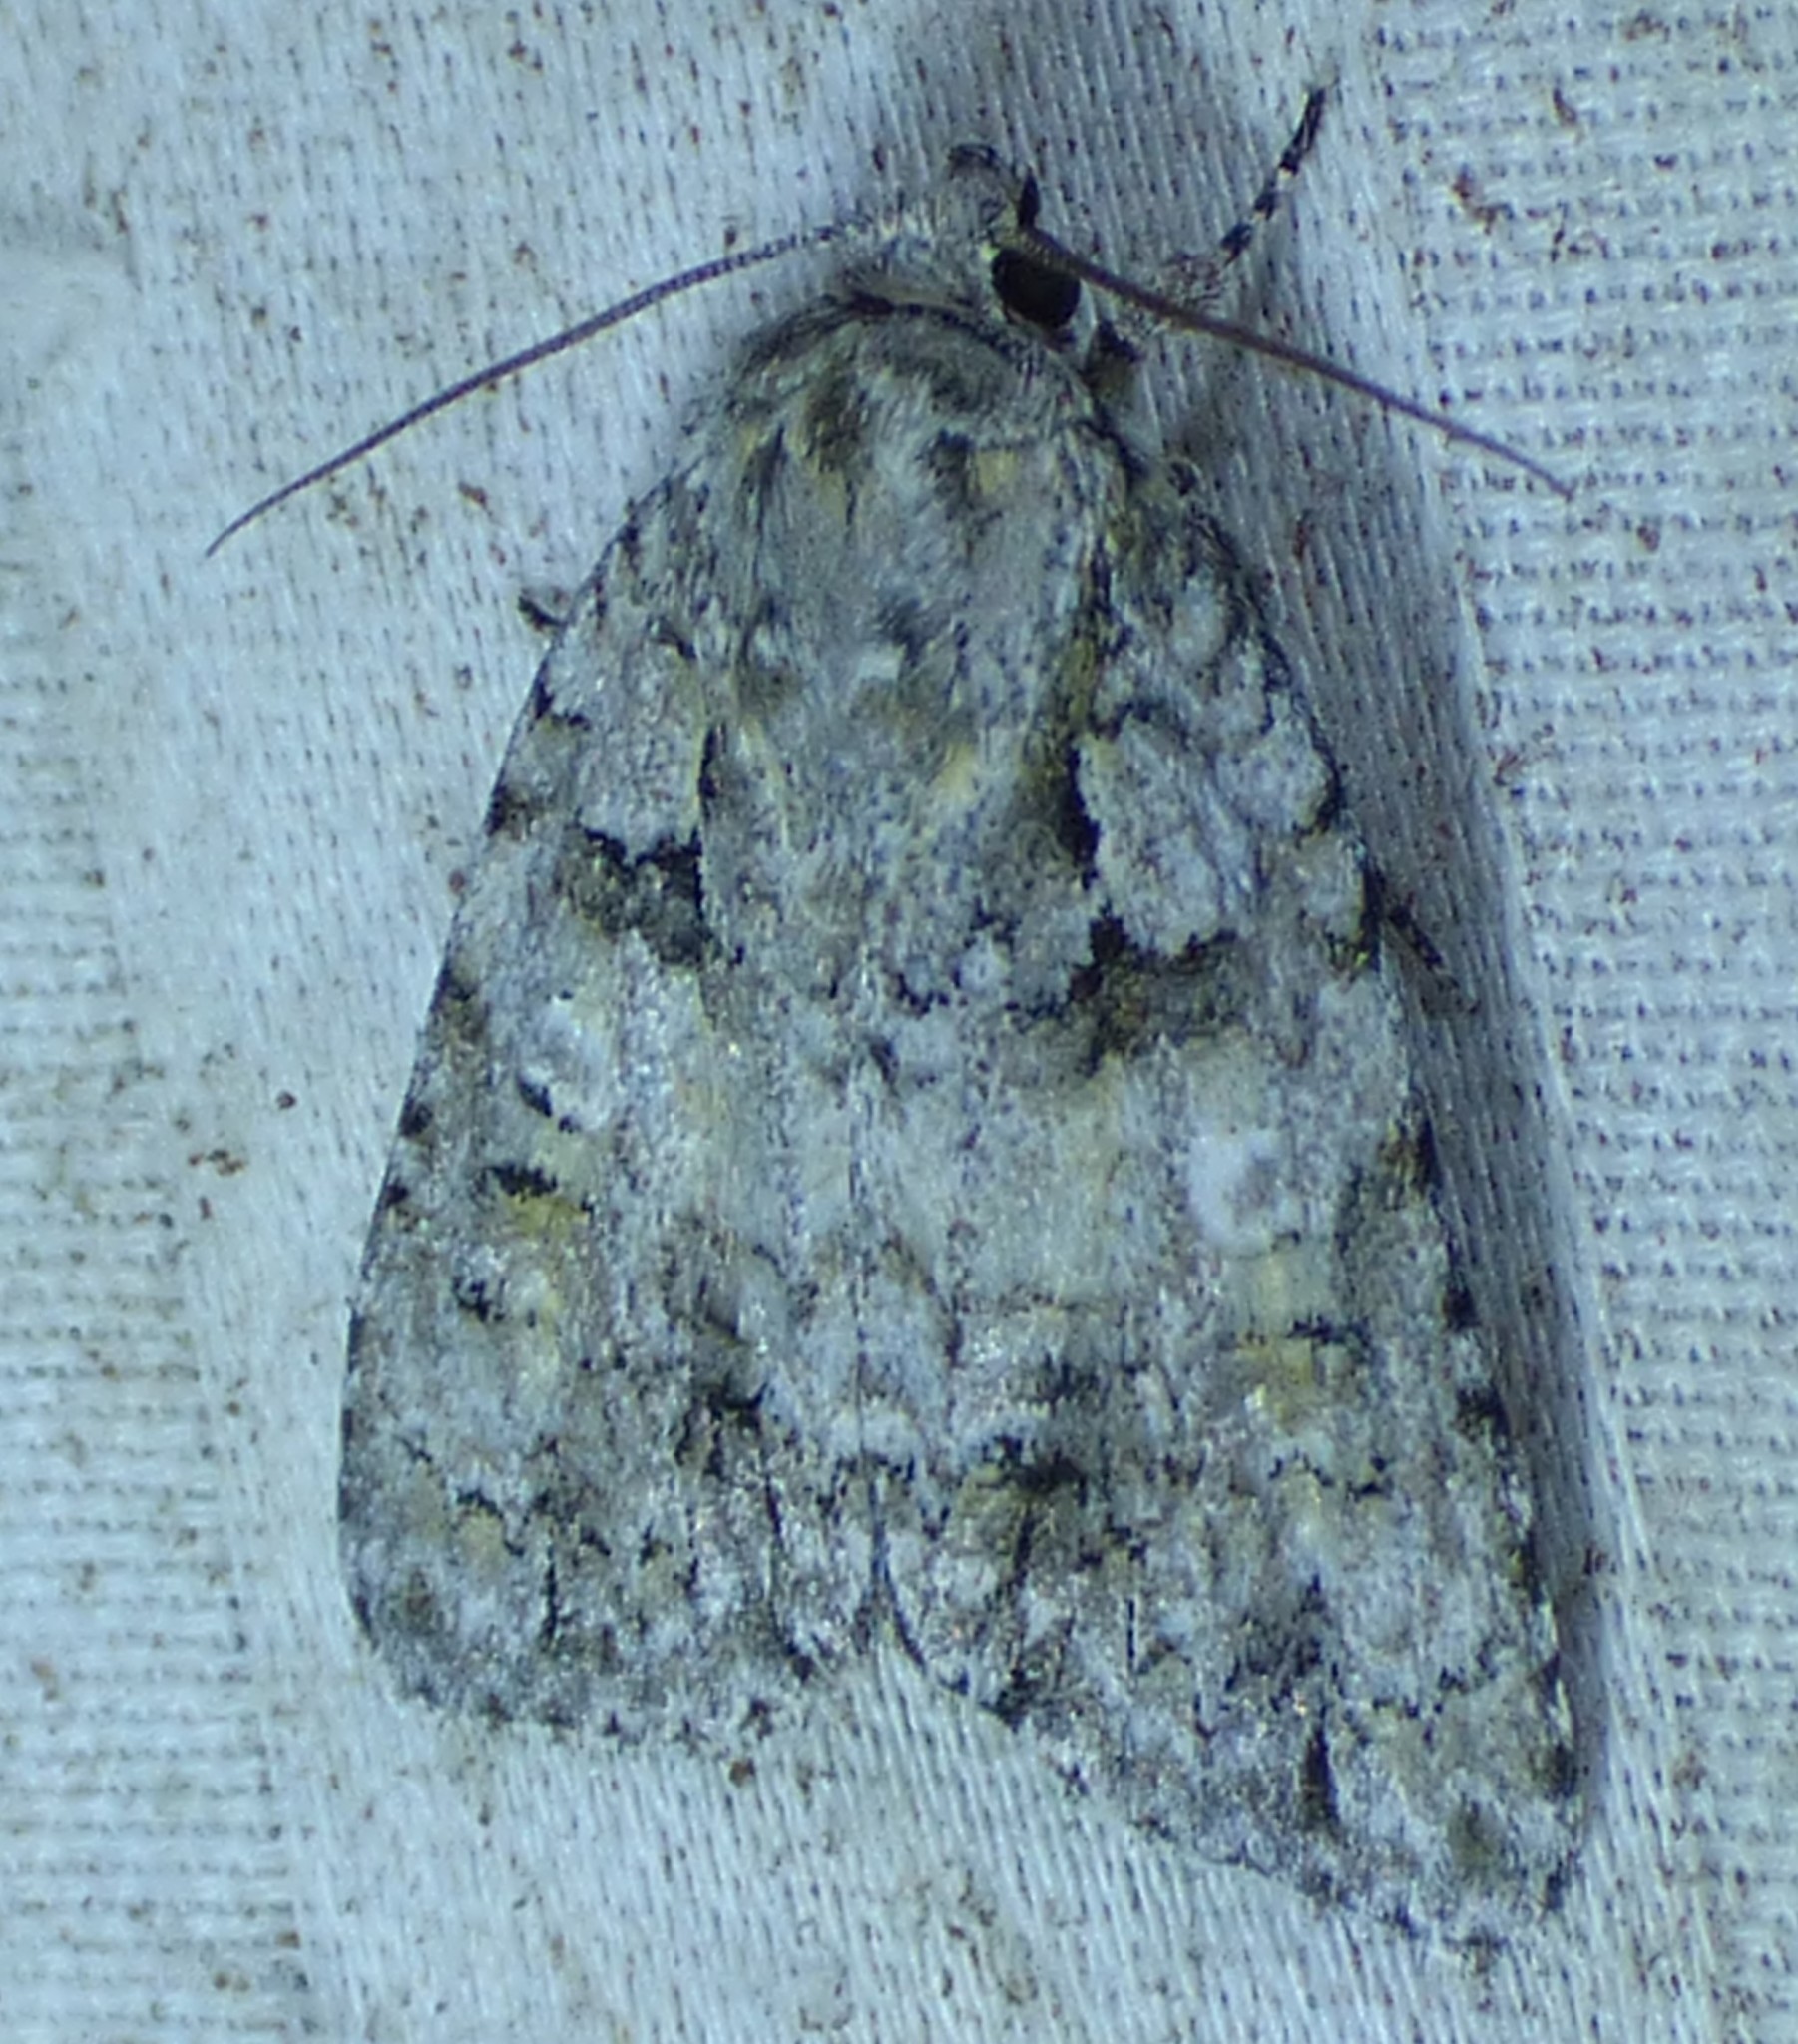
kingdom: Animalia
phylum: Arthropoda
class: Insecta
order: Lepidoptera
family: Noctuidae
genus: Acronicta
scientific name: Acronicta ovata
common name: Epauleted oak dagger
